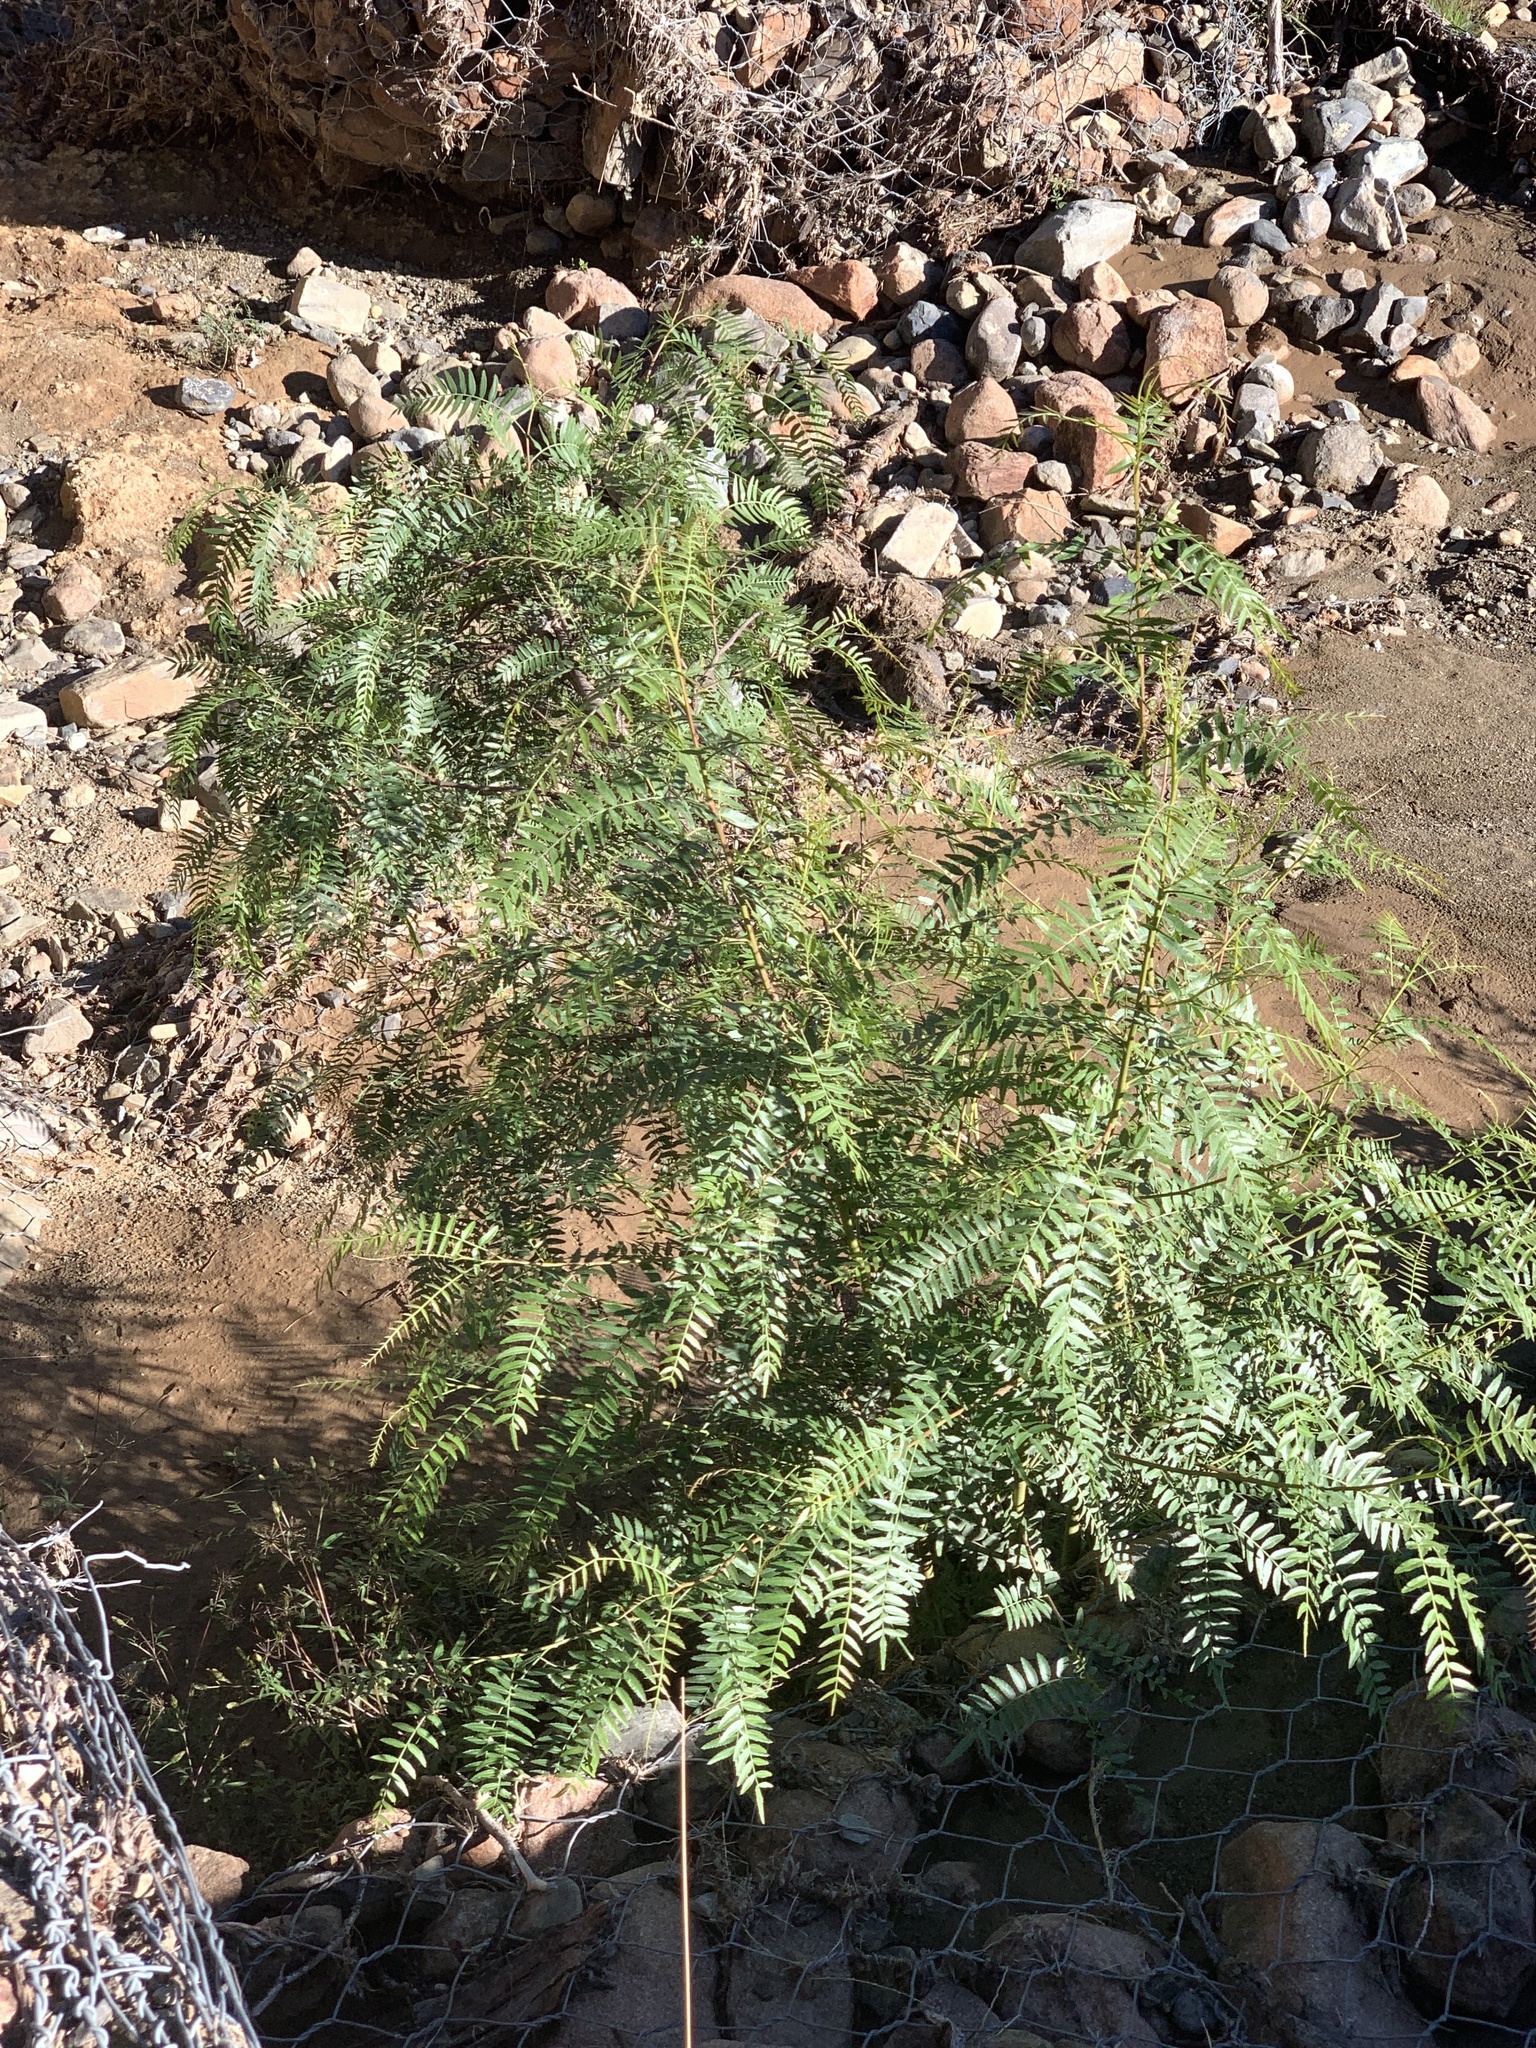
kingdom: Plantae
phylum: Tracheophyta
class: Magnoliopsida
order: Sapindales
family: Anacardiaceae
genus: Schinus
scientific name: Schinus molle
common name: Peruvian peppertree
